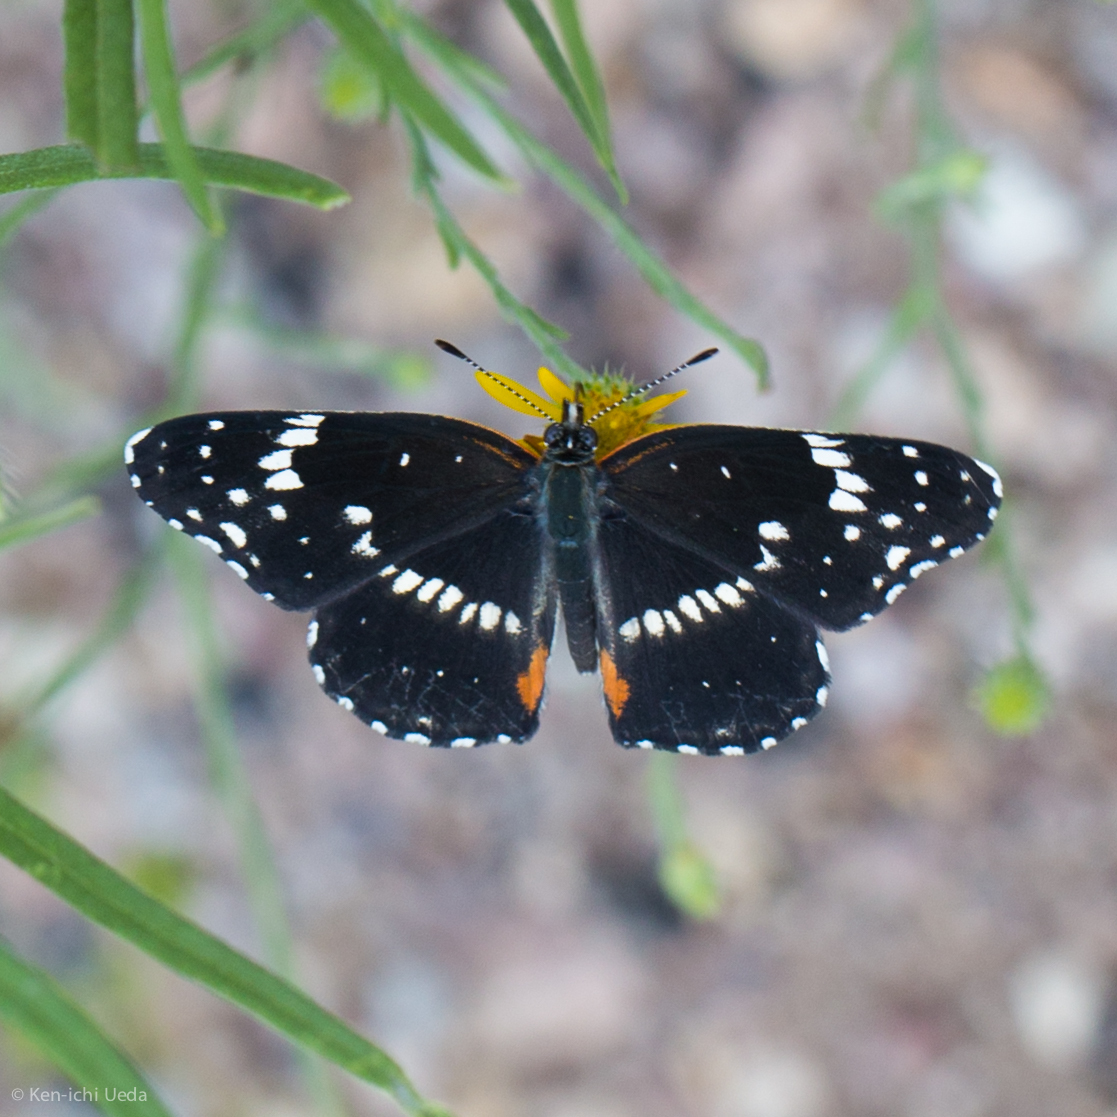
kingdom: Animalia
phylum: Arthropoda
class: Insecta
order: Lepidoptera
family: Nymphalidae
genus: Chlosyne
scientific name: Chlosyne lacinia
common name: Bordered patch
